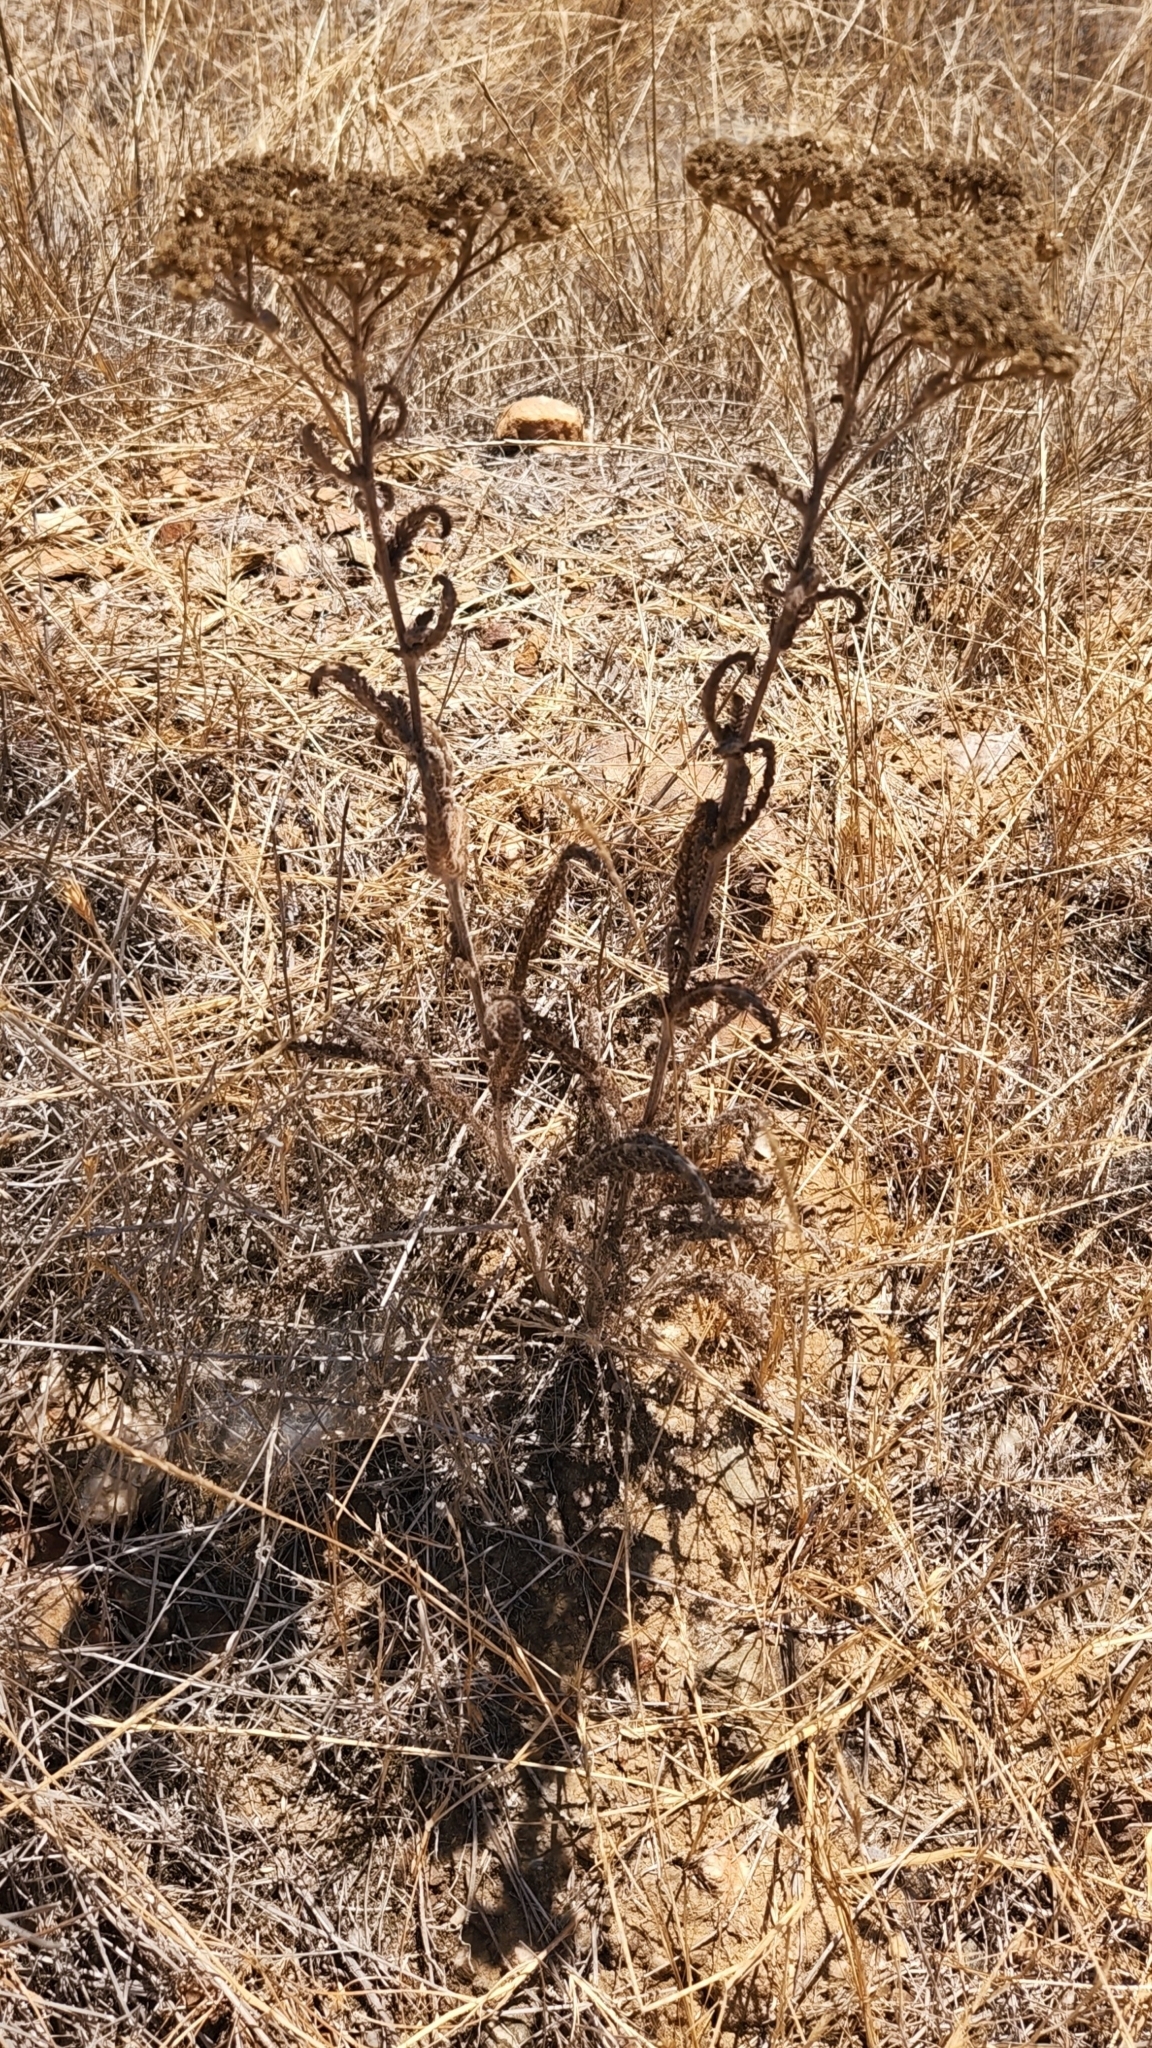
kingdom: Plantae
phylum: Tracheophyta
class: Magnoliopsida
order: Asterales
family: Asteraceae
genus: Achillea
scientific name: Achillea millefolium
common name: Yarrow
